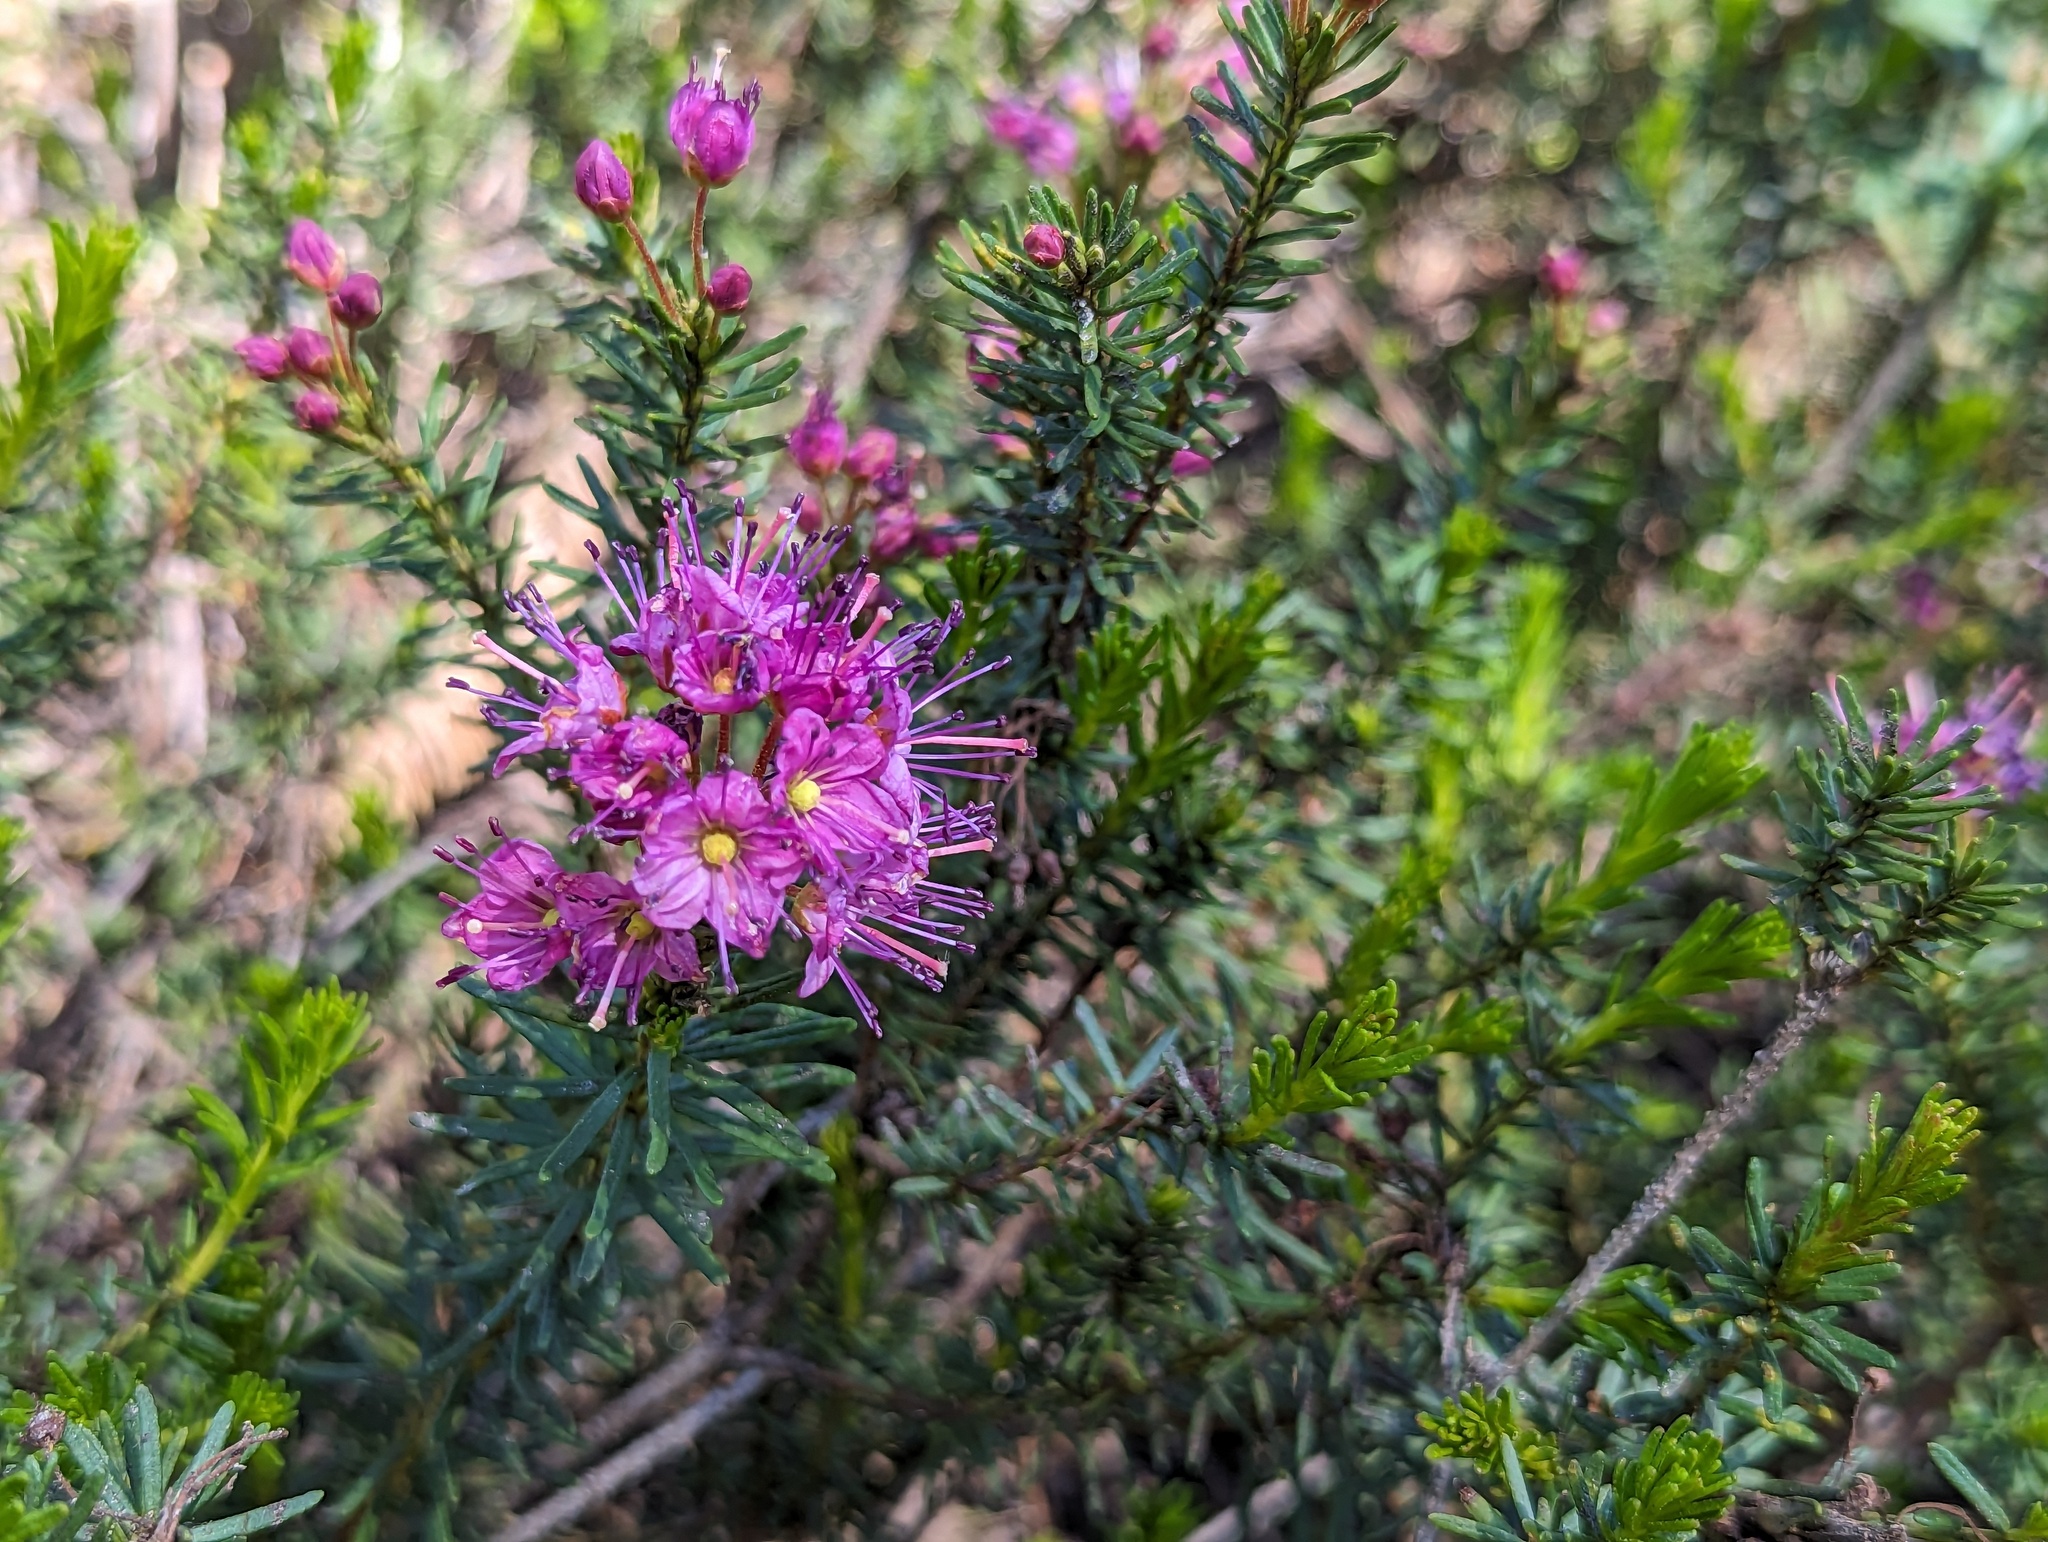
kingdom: Plantae
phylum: Tracheophyta
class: Magnoliopsida
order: Ericales
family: Ericaceae
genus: Phyllodoce
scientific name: Phyllodoce breweri
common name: Brewer's mountain-heather
